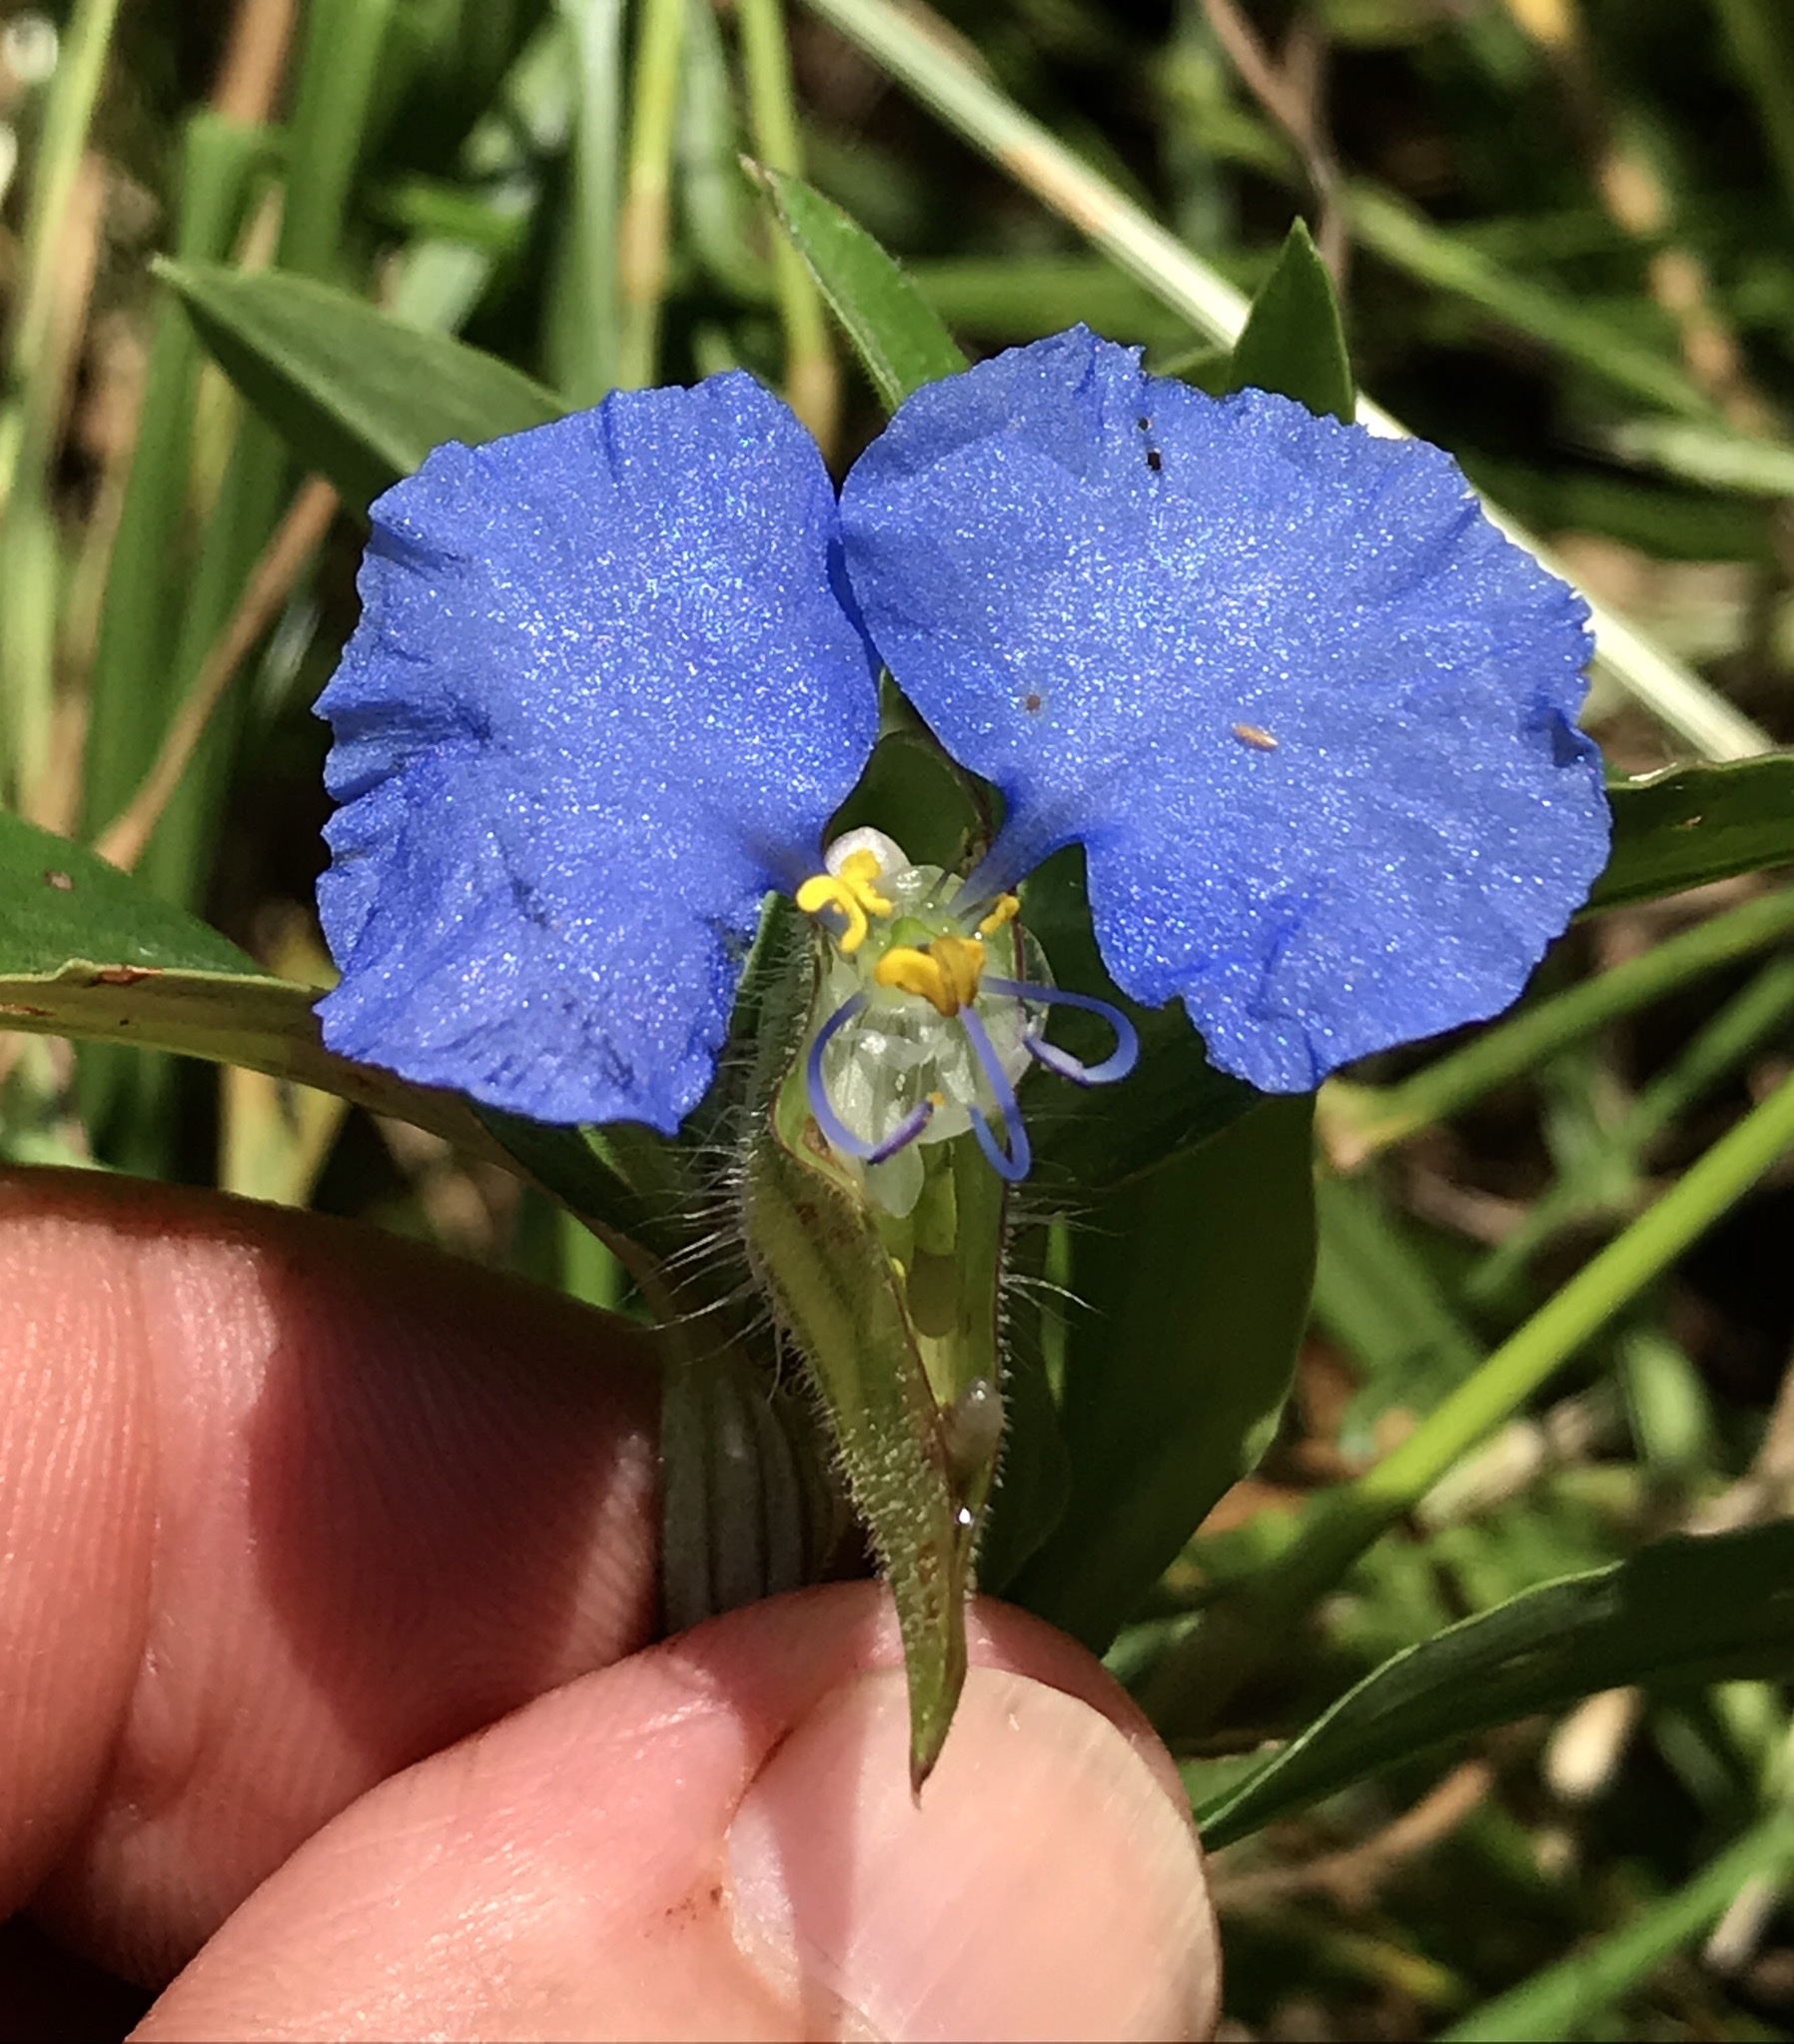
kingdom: Plantae
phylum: Tracheophyta
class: Liliopsida
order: Commelinales
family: Commelinaceae
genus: Commelina
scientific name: Commelina erecta
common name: Blousel blommetjie
